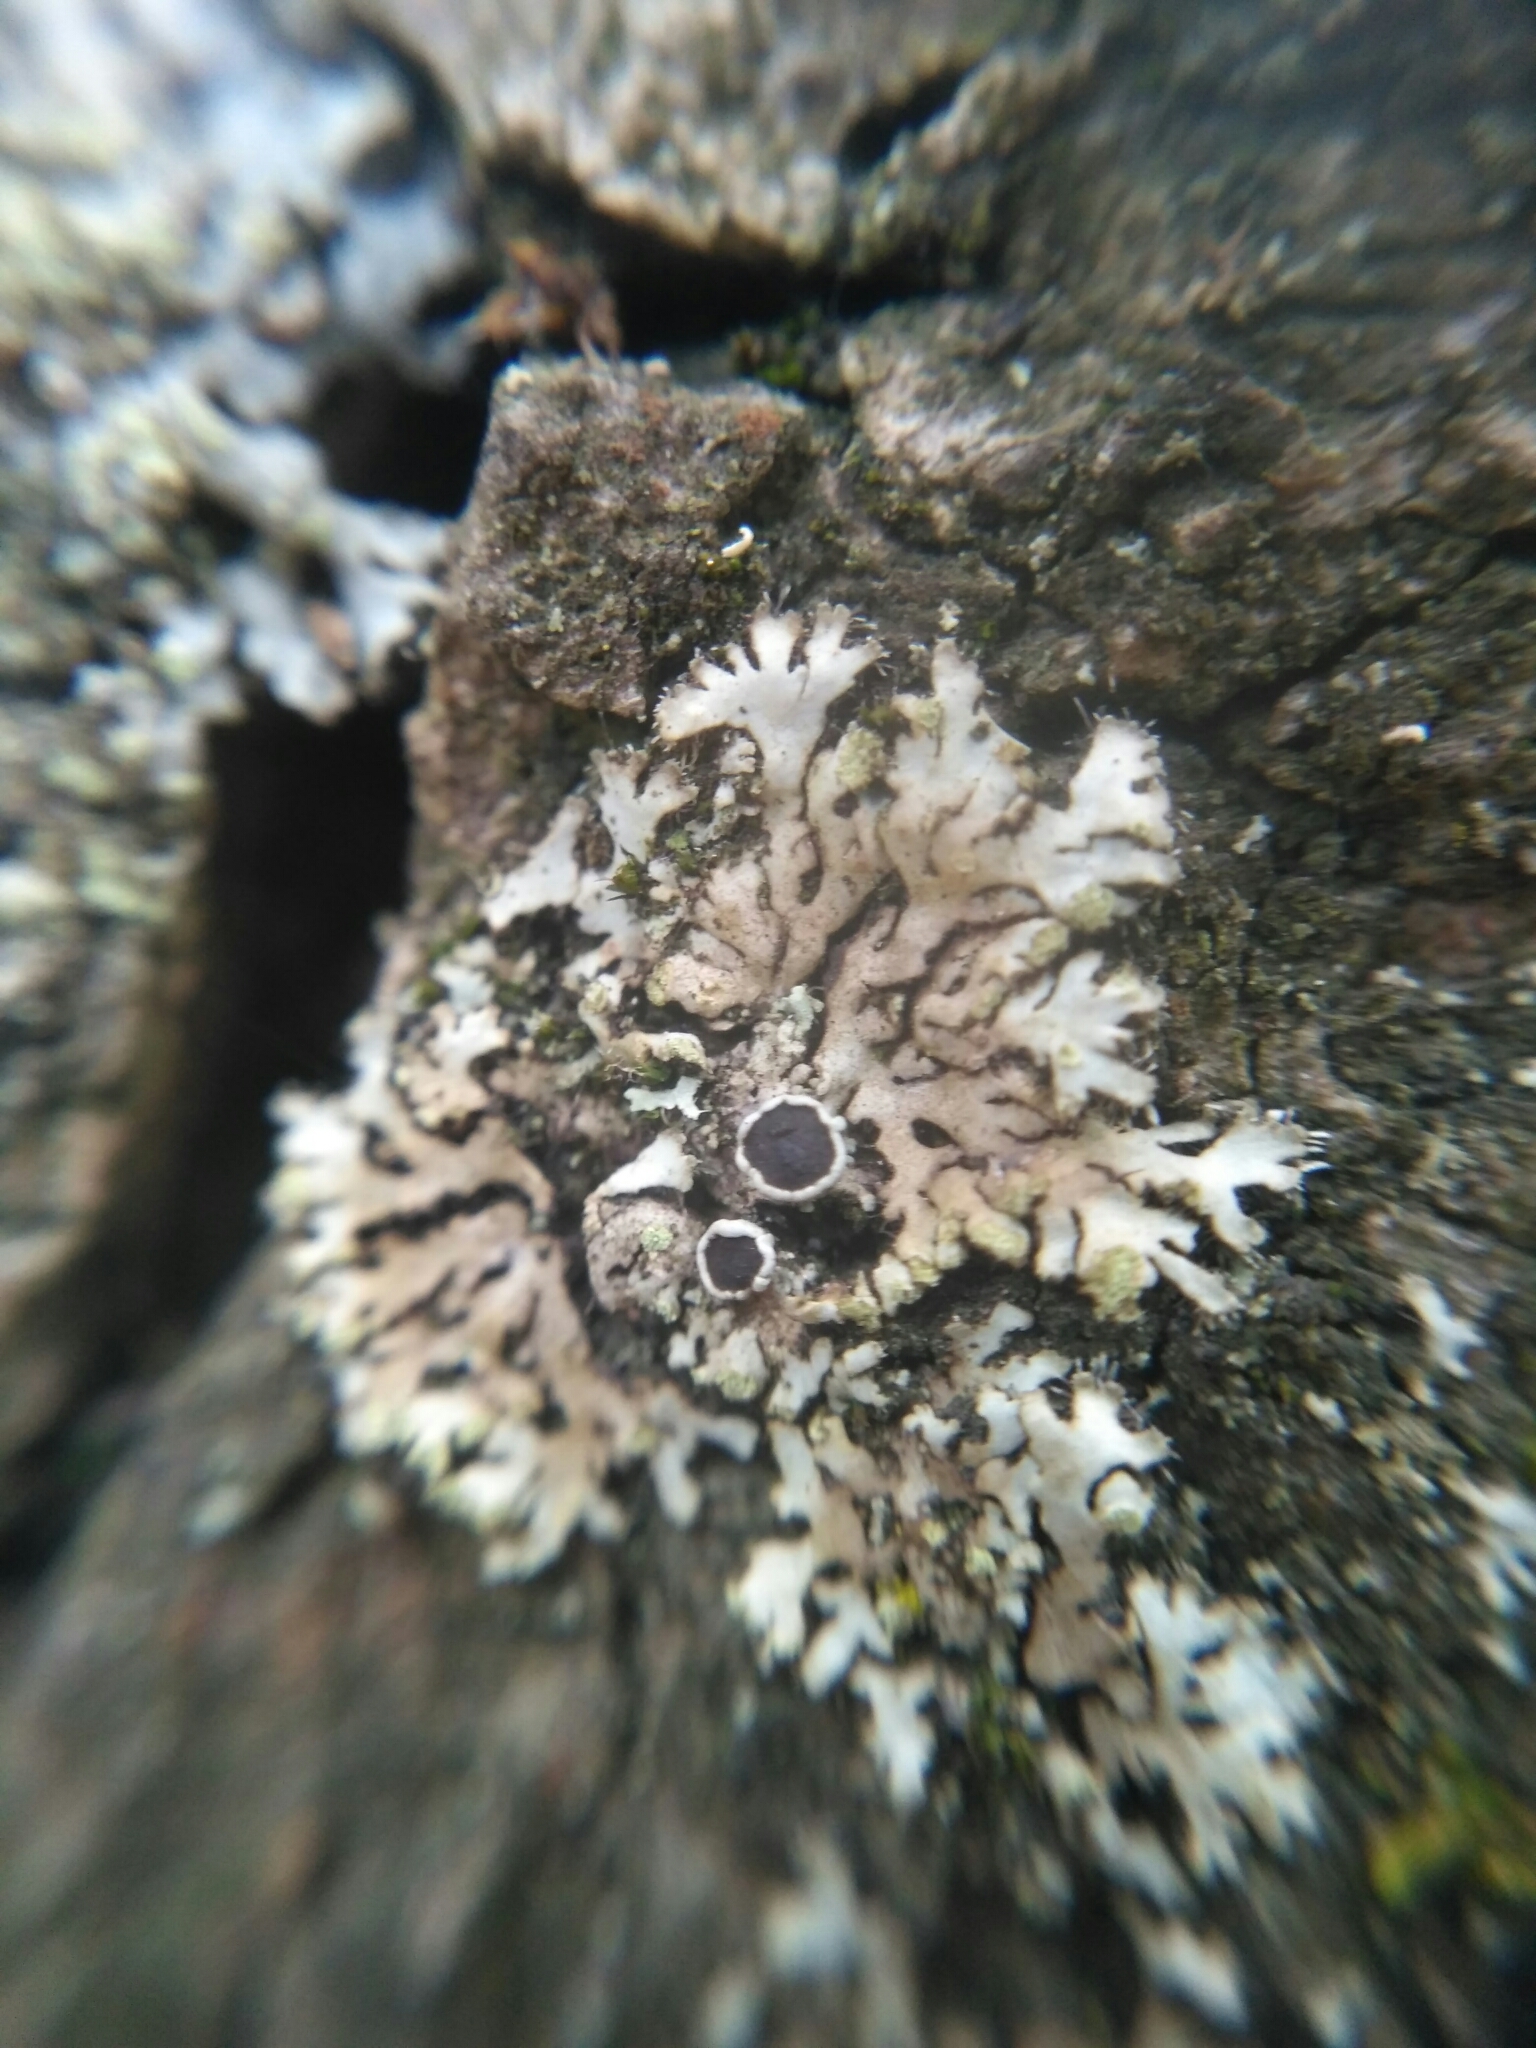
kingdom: Fungi
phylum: Ascomycota
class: Lecanoromycetes
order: Caliciales
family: Physciaceae
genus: Phaeophyscia
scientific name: Phaeophyscia orbicularis
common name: Mealy shadow lichen
